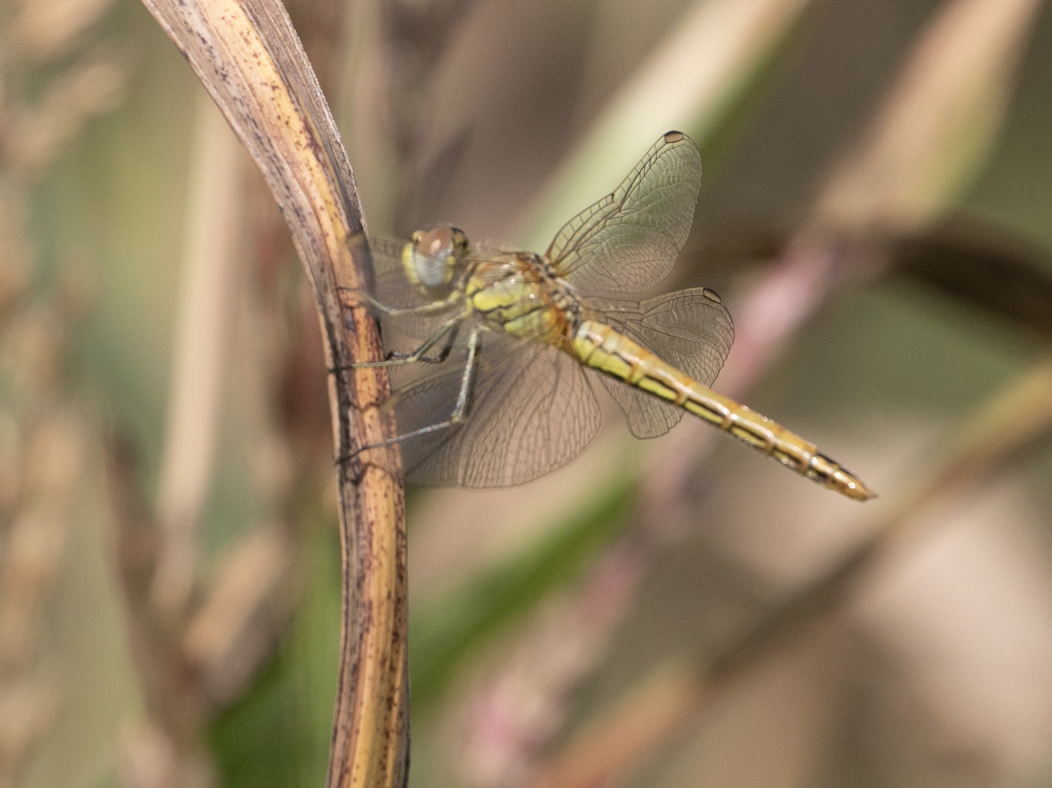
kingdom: Animalia
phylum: Arthropoda
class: Insecta
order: Odonata
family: Libellulidae
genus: Sympetrum
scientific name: Sympetrum fonscolombii
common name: Red-veined darter
